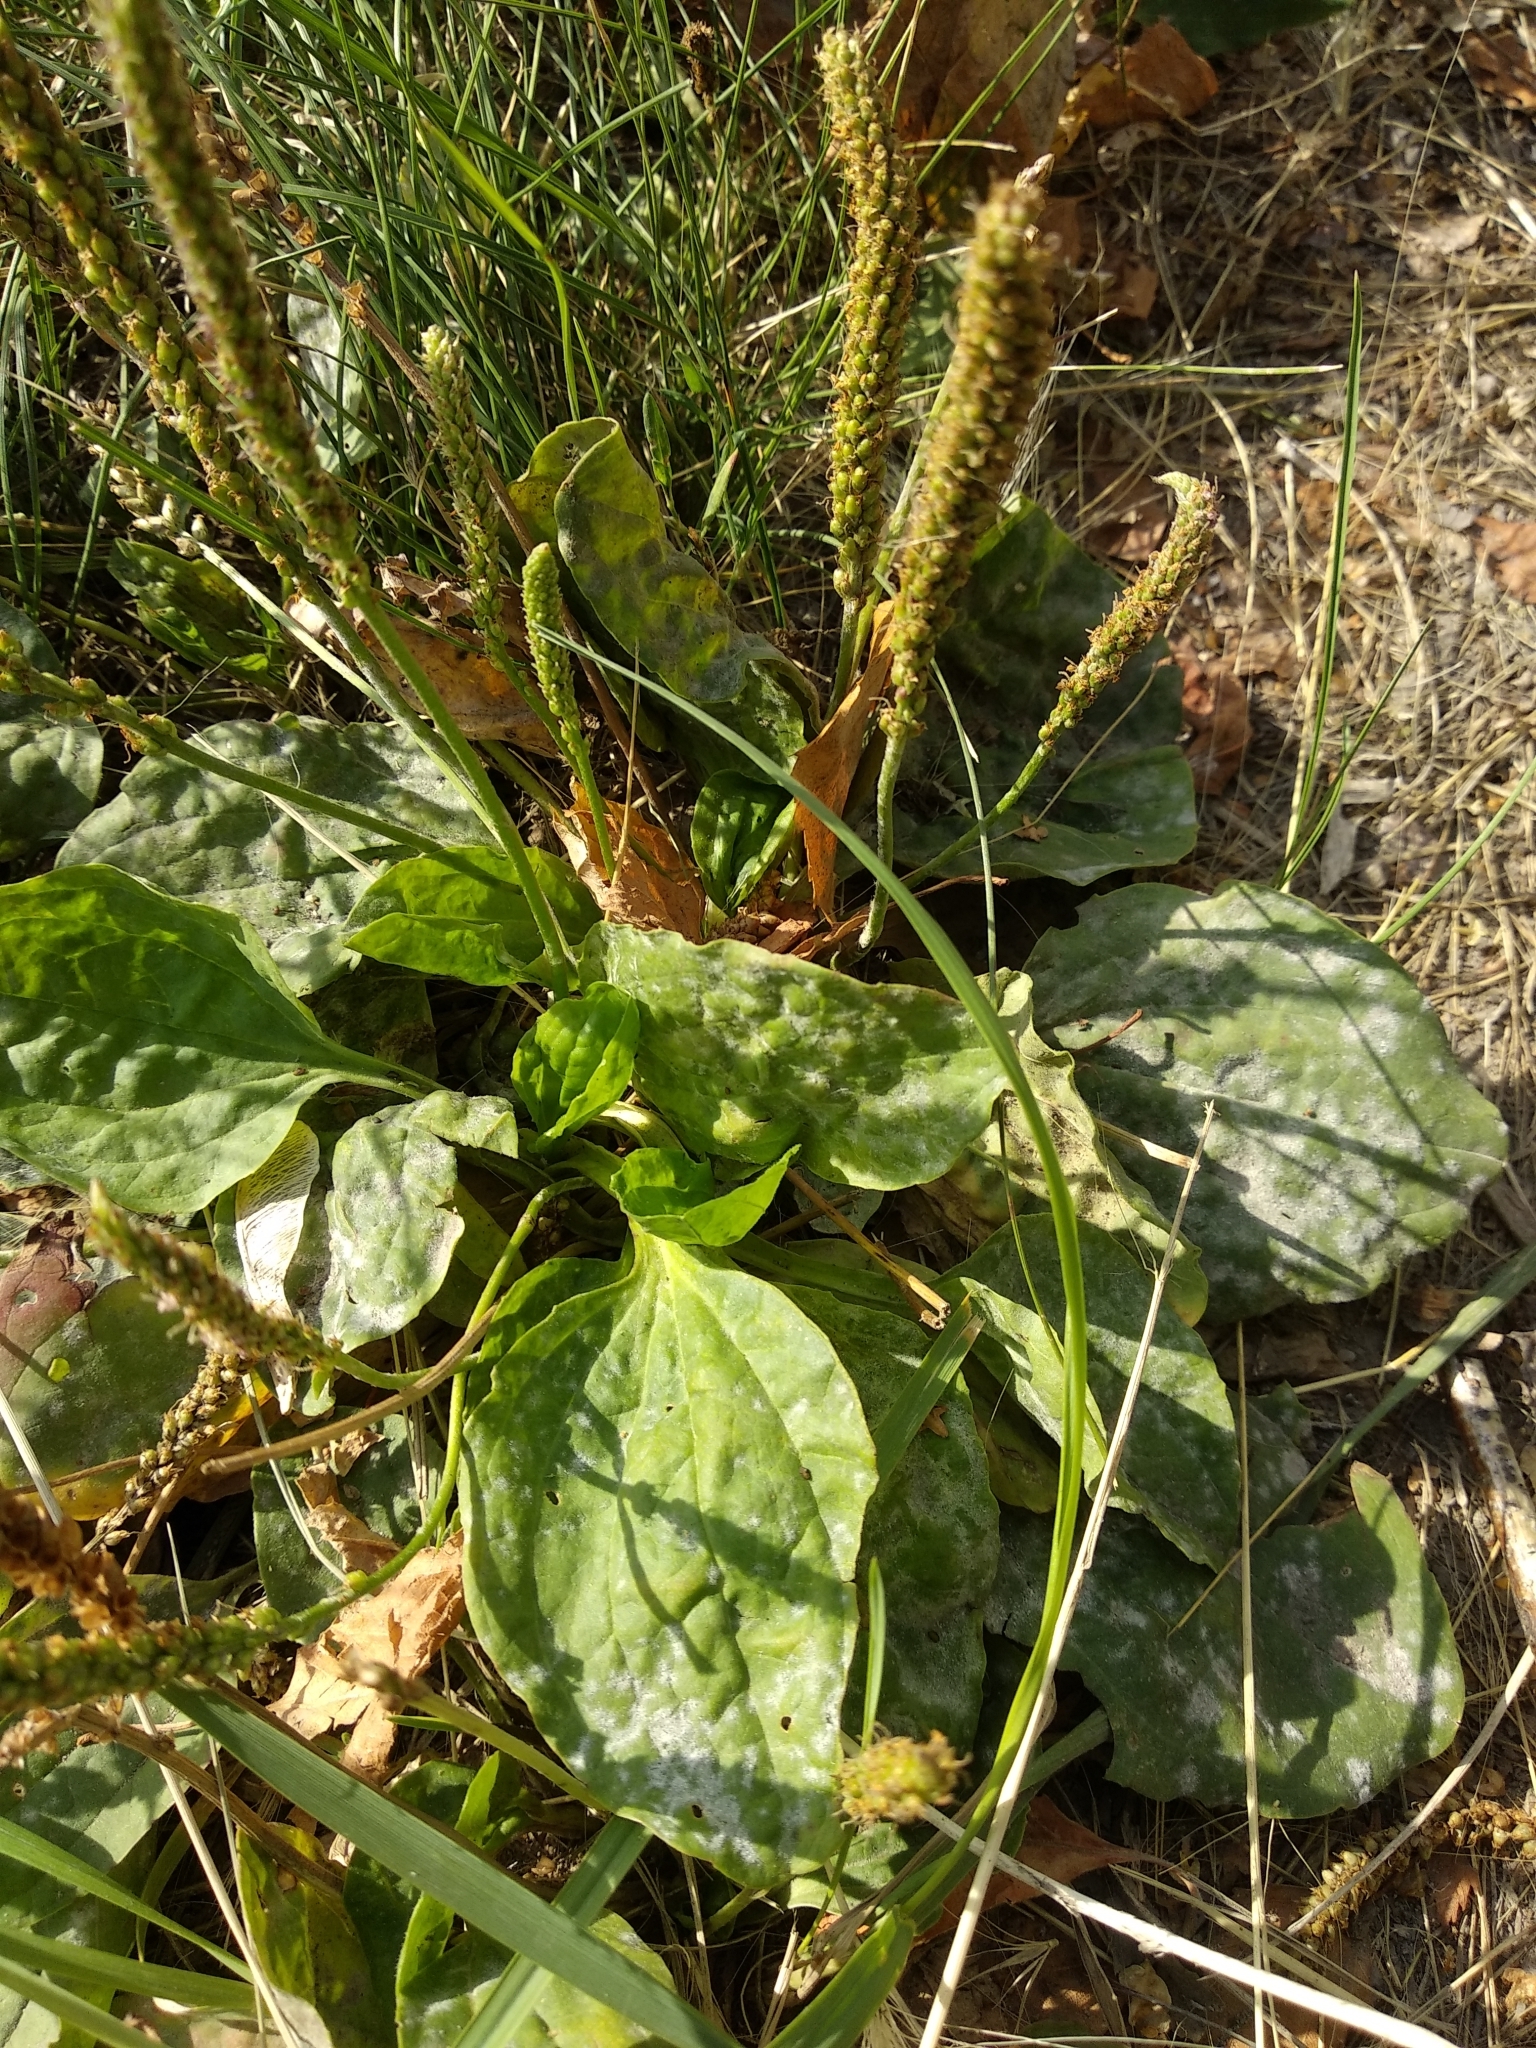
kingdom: Plantae
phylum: Tracheophyta
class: Magnoliopsida
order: Lamiales
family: Plantaginaceae
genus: Plantago
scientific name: Plantago major
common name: Common plantain
